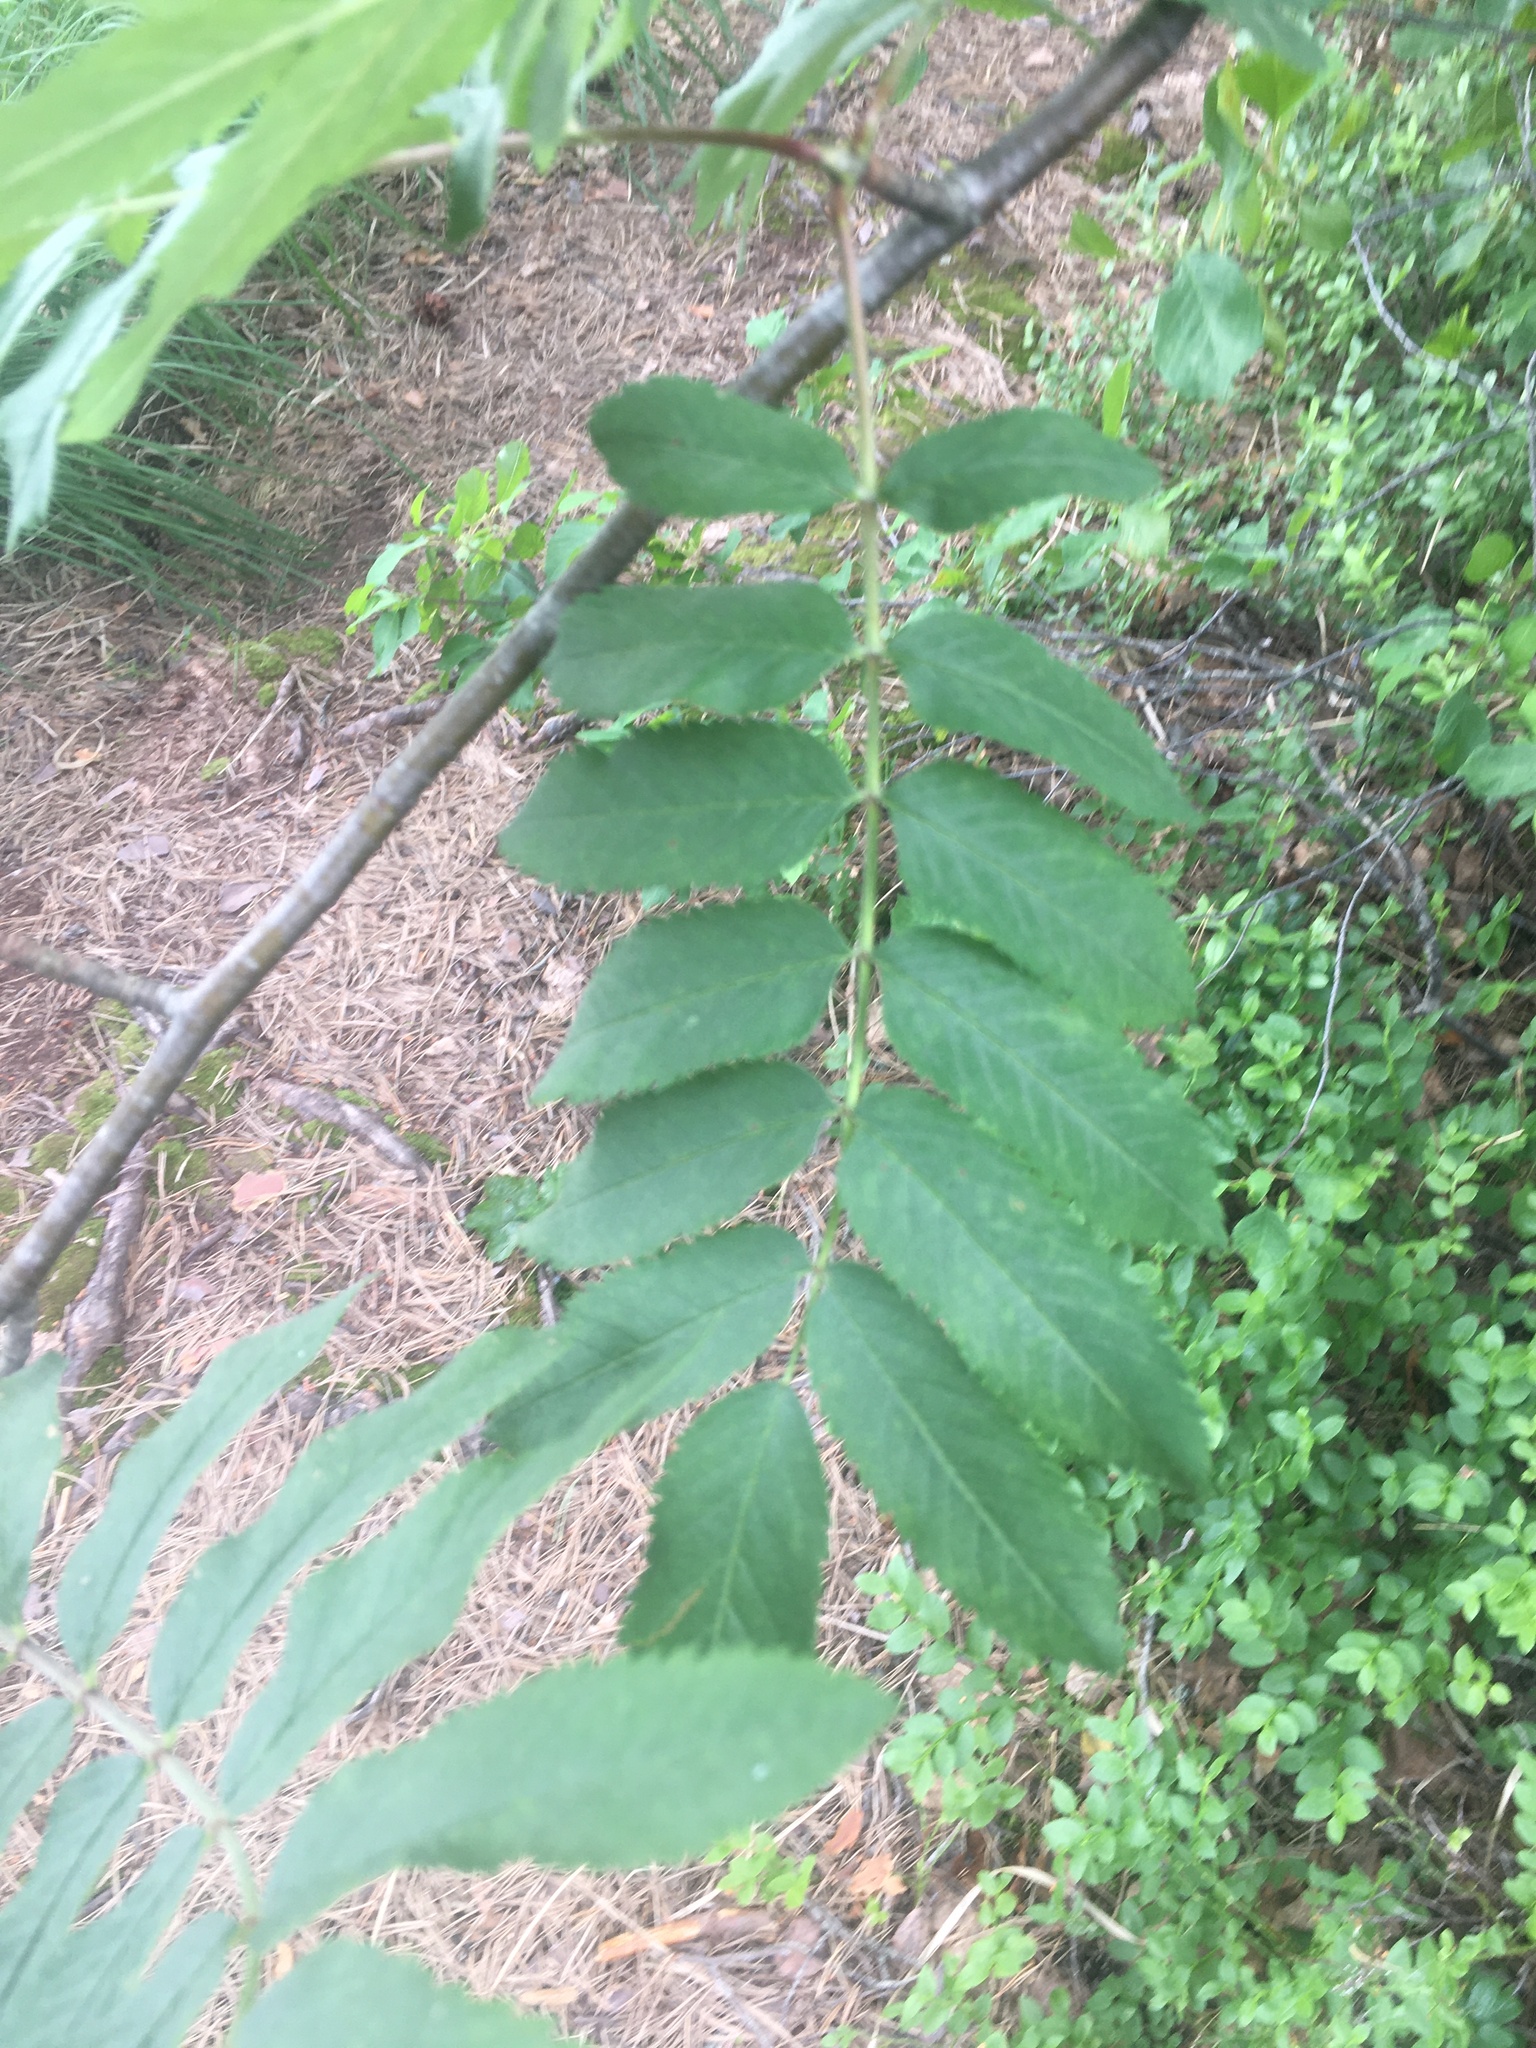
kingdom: Plantae
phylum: Tracheophyta
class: Magnoliopsida
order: Rosales
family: Rosaceae
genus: Sorbus
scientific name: Sorbus aucuparia
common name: Rowan
